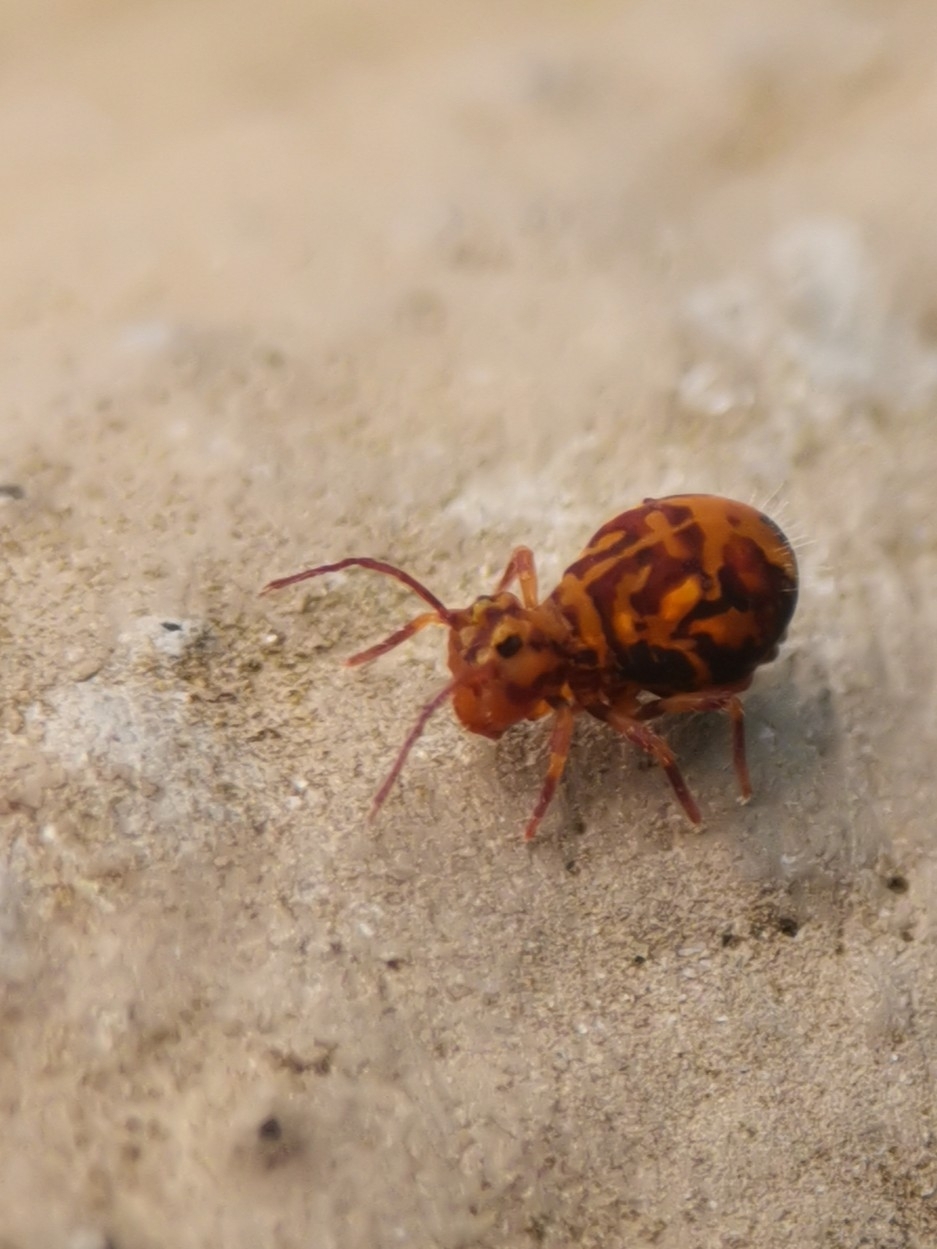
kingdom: Animalia
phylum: Arthropoda
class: Collembola
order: Symphypleona
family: Dicyrtomidae
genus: Dicyrtomina
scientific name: Dicyrtomina ornata
